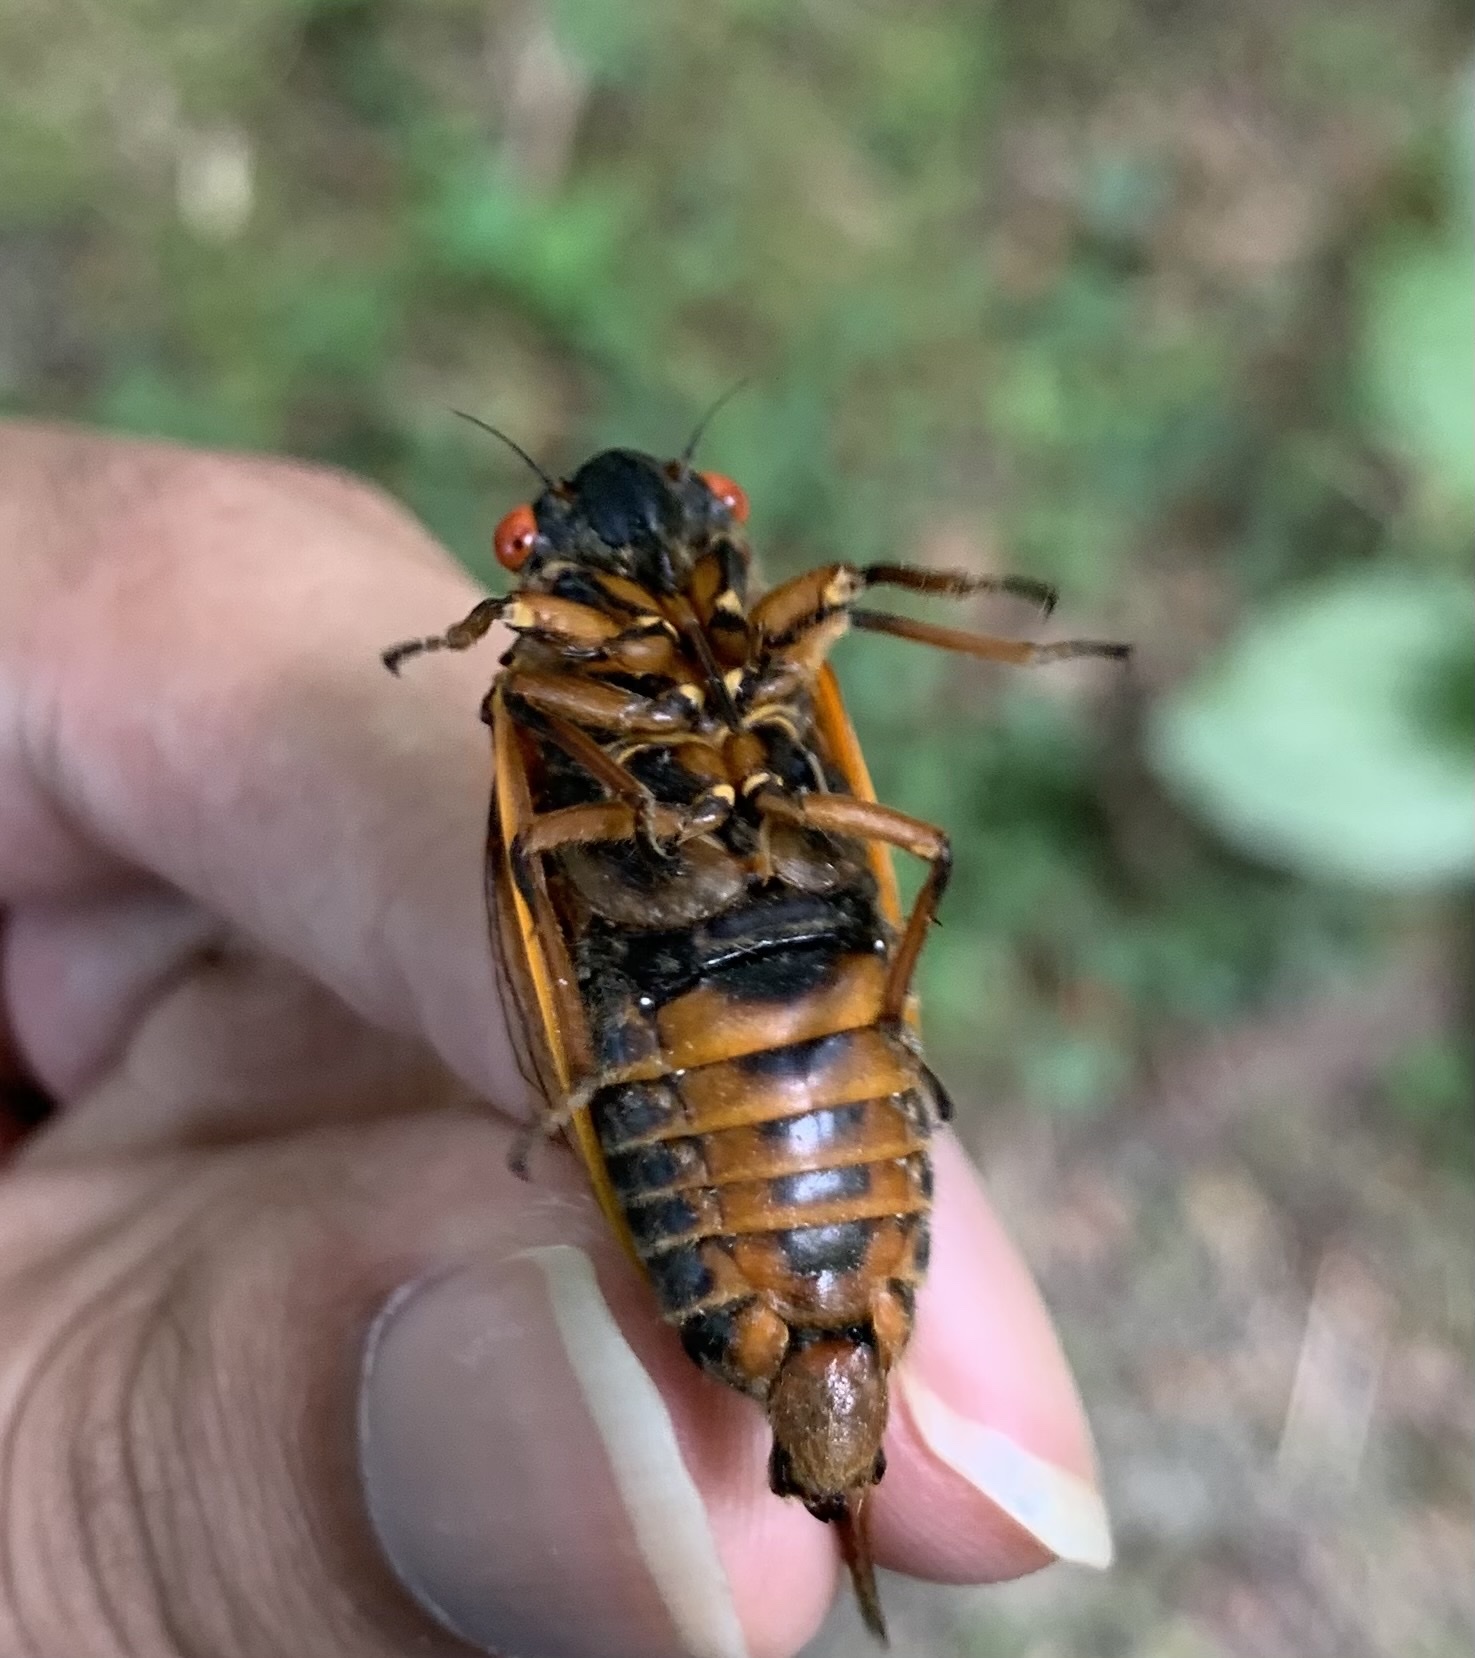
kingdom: Animalia
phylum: Arthropoda
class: Insecta
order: Hemiptera
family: Cicadidae
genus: Magicicada
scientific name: Magicicada septendecim
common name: Periodical cicada
